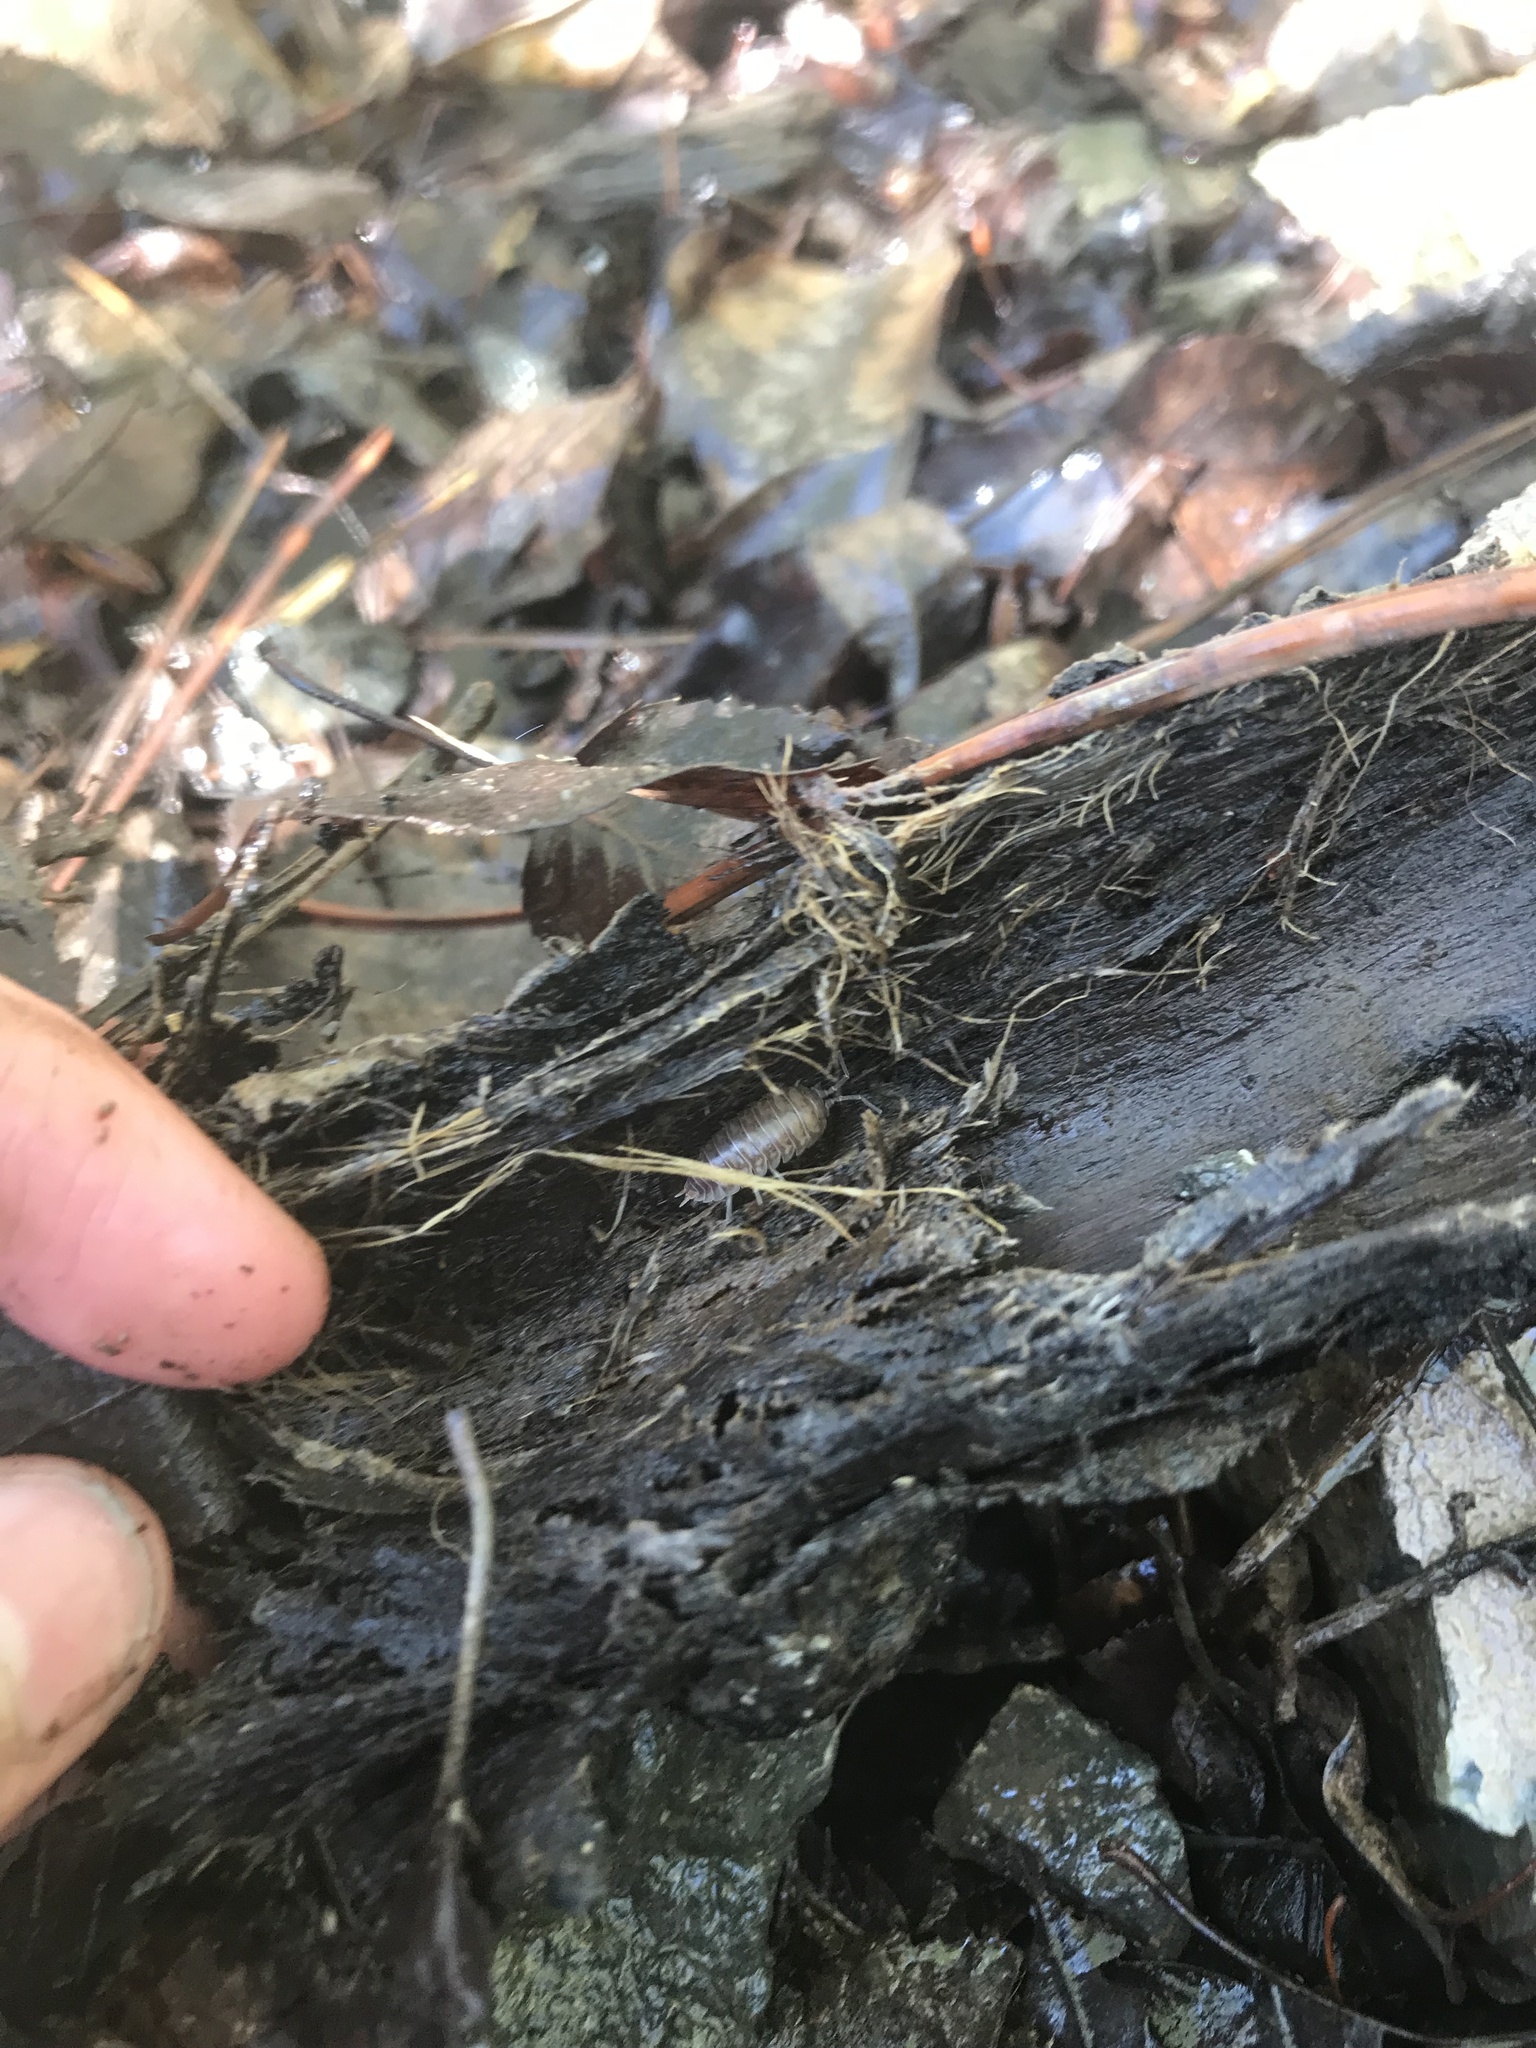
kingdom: Animalia
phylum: Arthropoda
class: Malacostraca
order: Isopoda
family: Cylisticidae
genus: Cylisticus
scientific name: Cylisticus convexus
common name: Curly woodlouse
